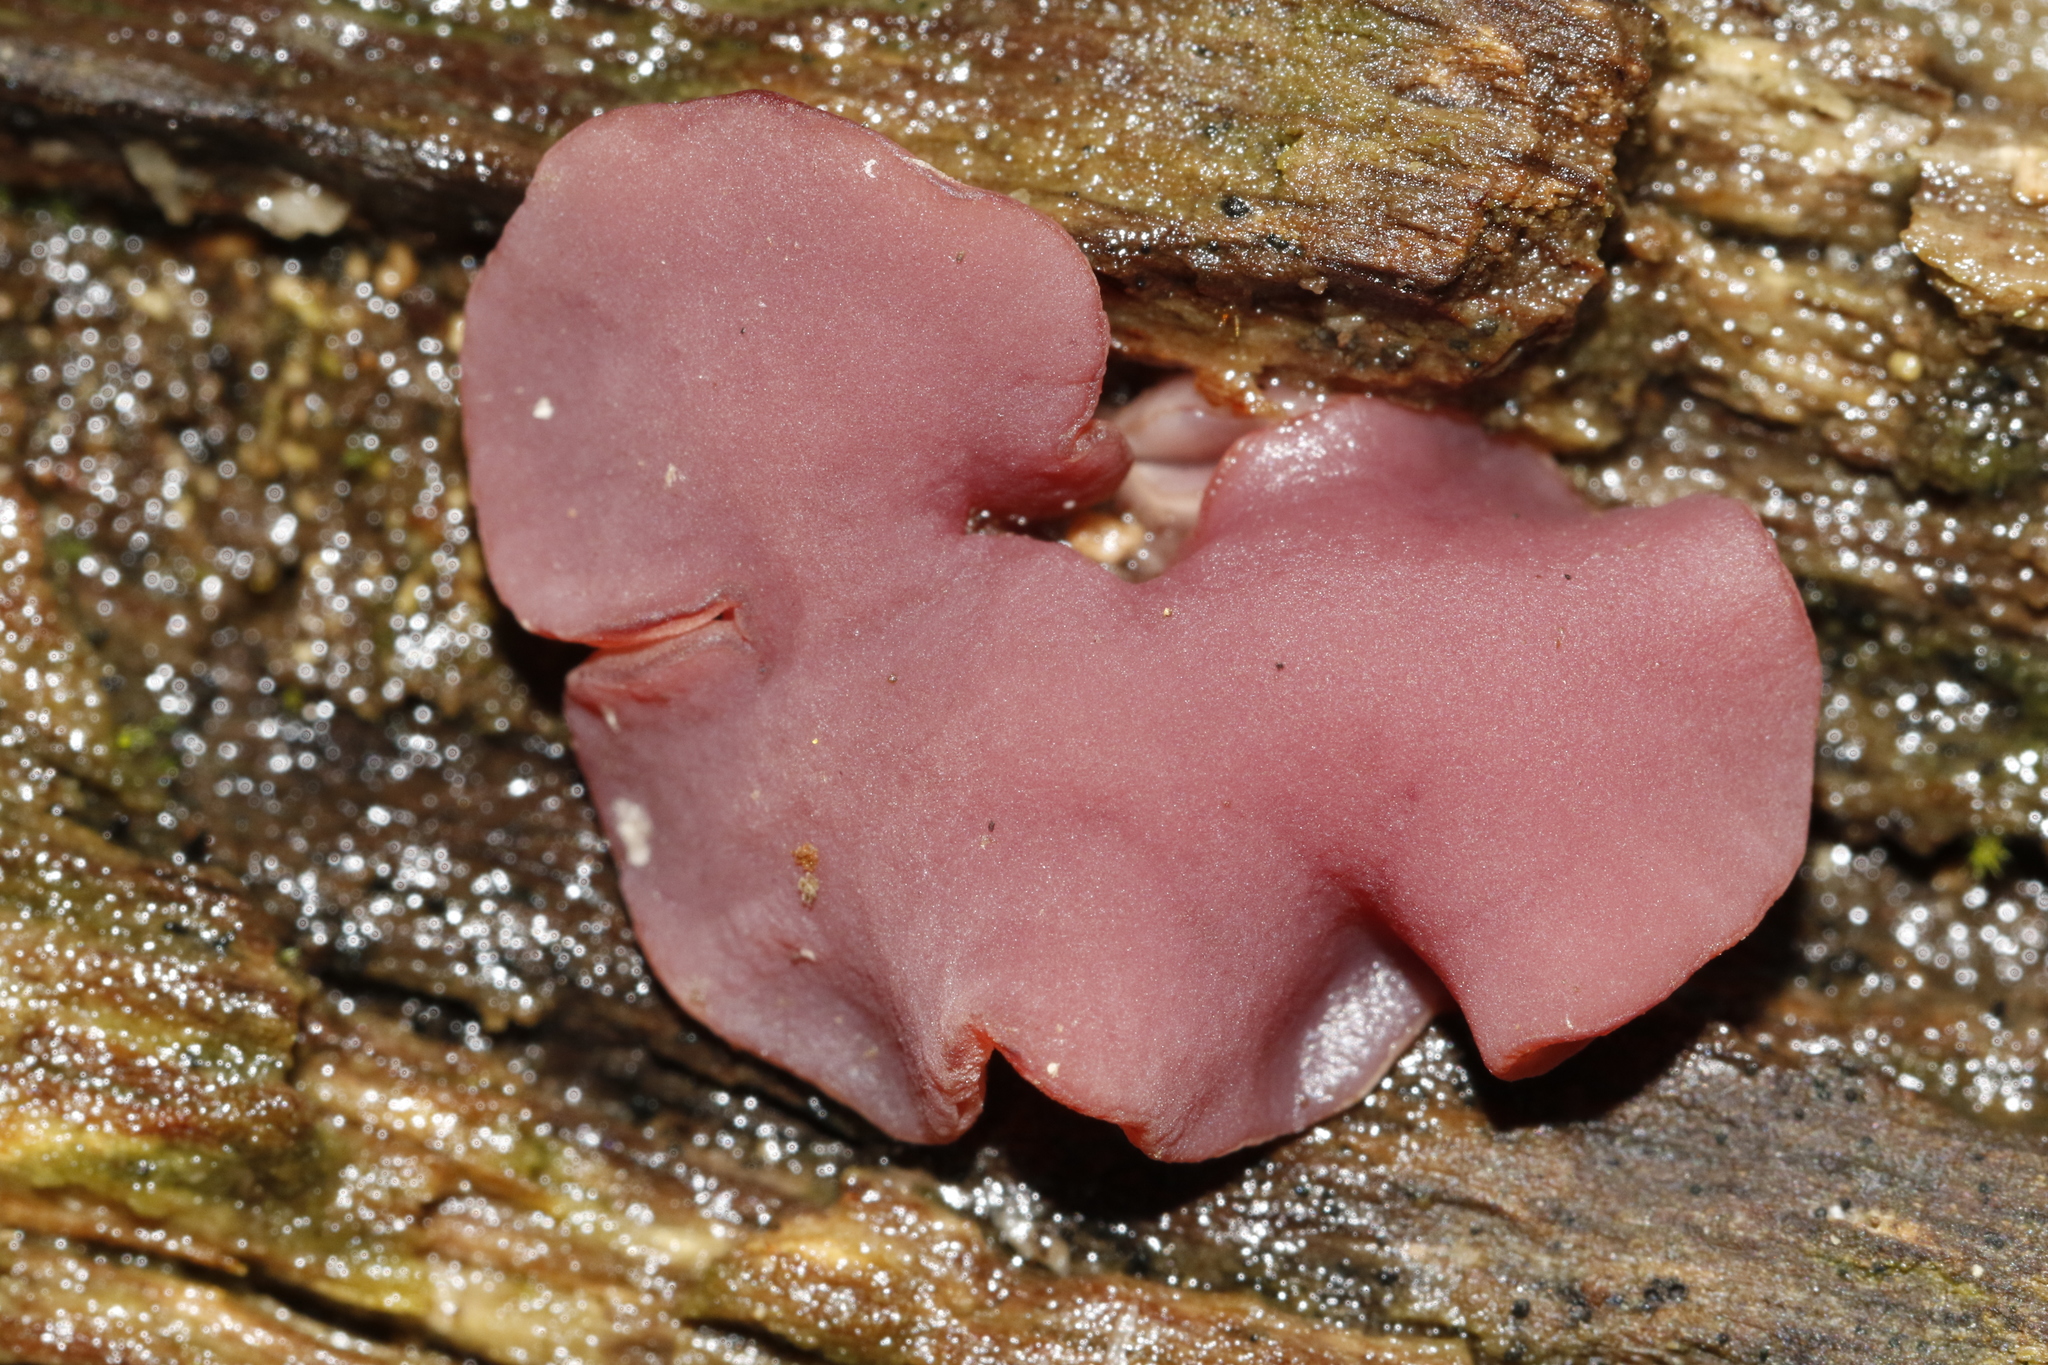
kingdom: Fungi
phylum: Ascomycota
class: Leotiomycetes
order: Helotiales
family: Gelatinodiscaceae
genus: Ascocoryne
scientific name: Ascocoryne sarcoides
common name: Purple jellydisc
